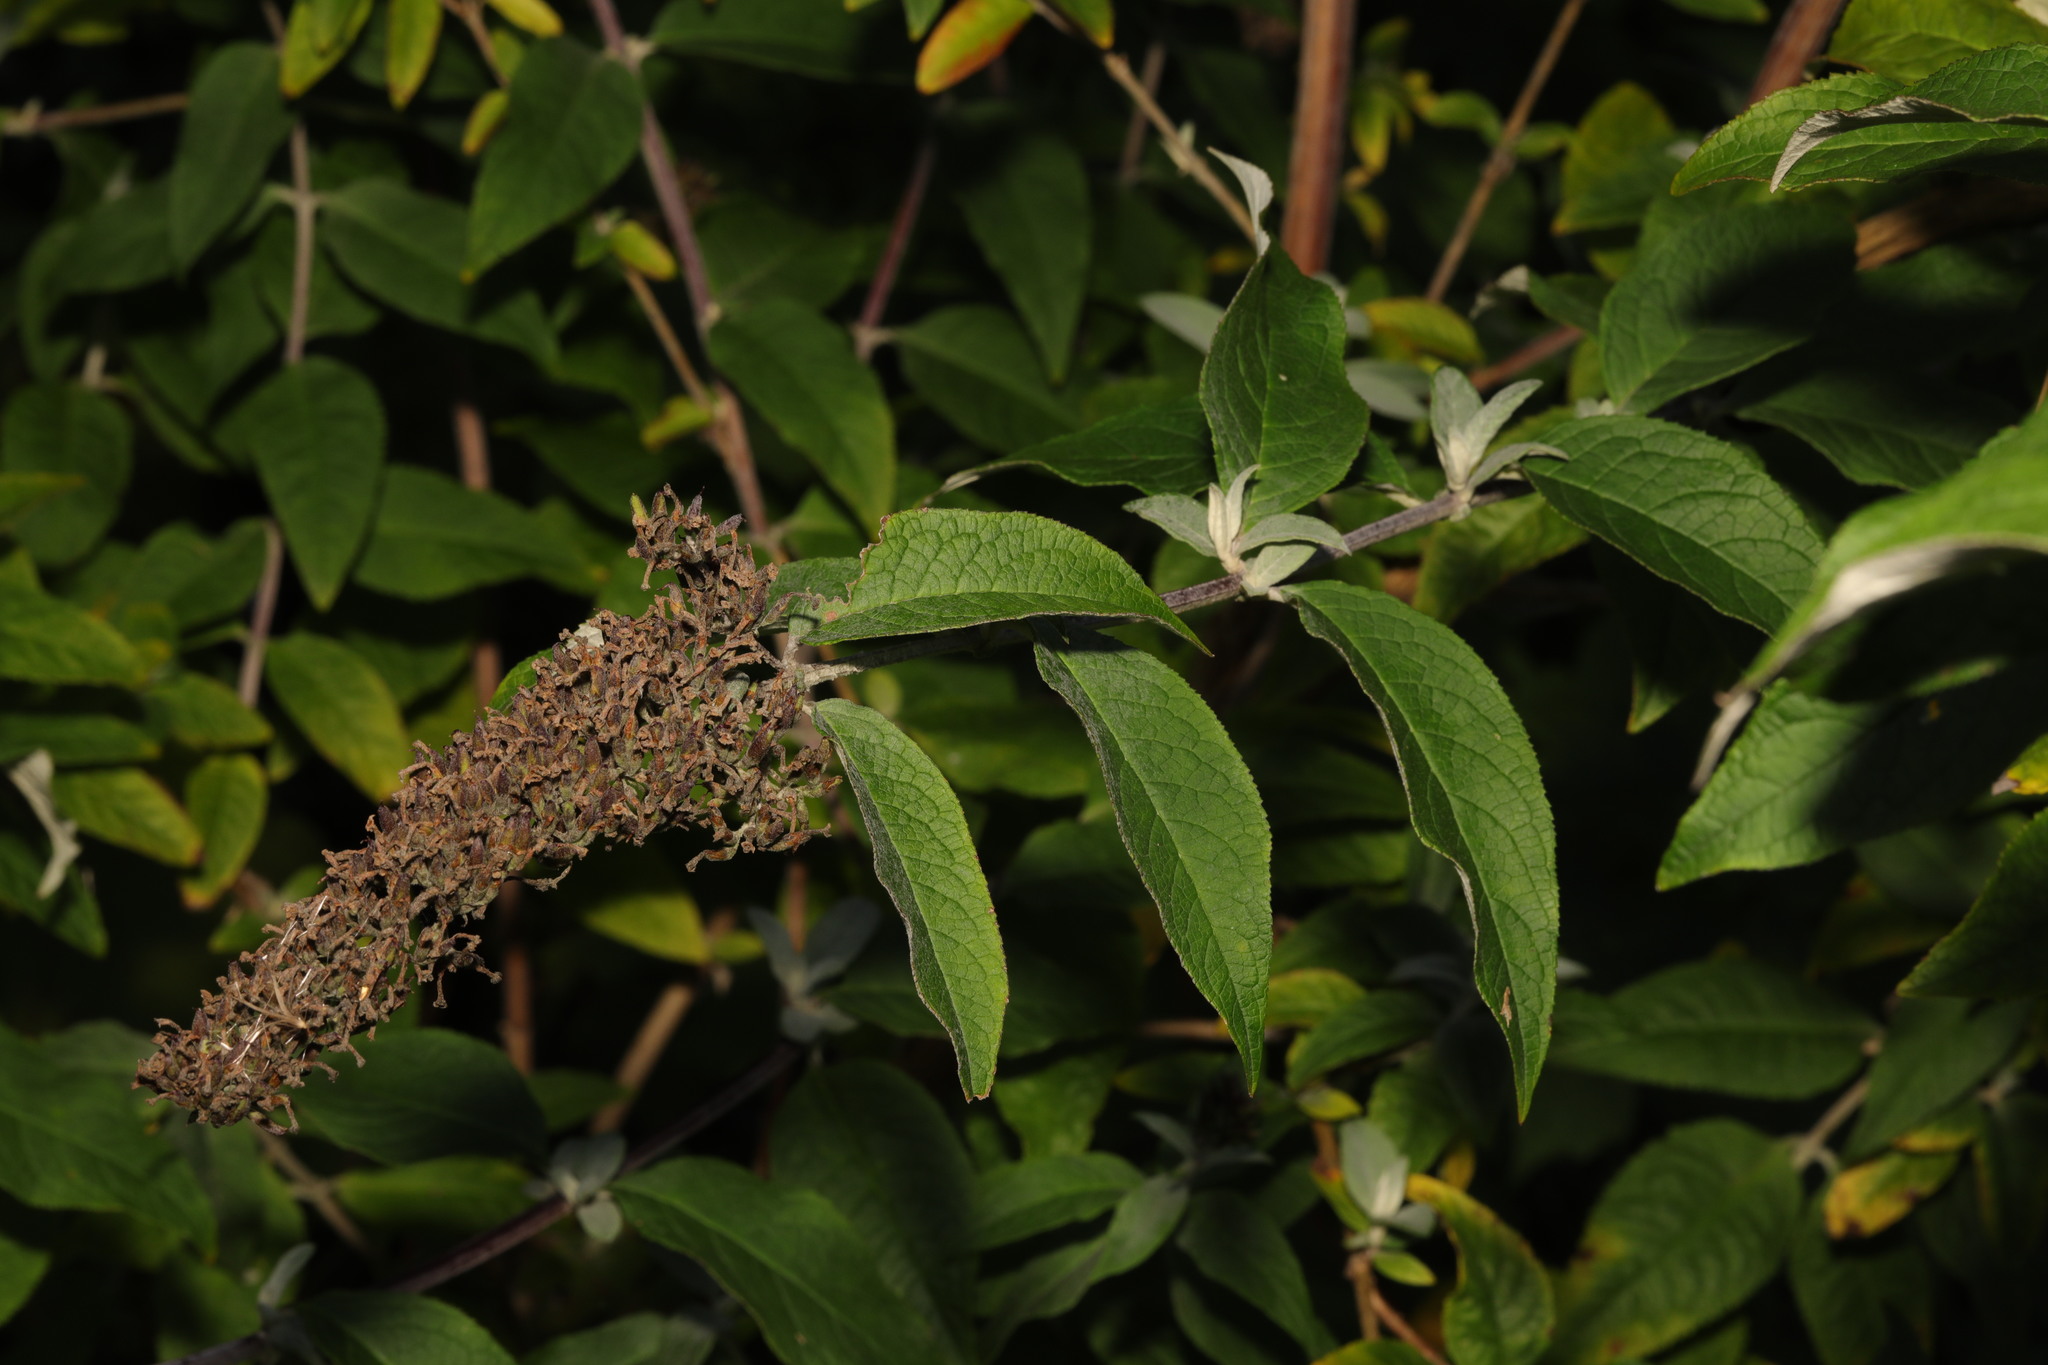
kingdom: Plantae
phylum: Tracheophyta
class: Magnoliopsida
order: Lamiales
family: Scrophulariaceae
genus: Buddleja
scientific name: Buddleja davidii
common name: Butterfly-bush
